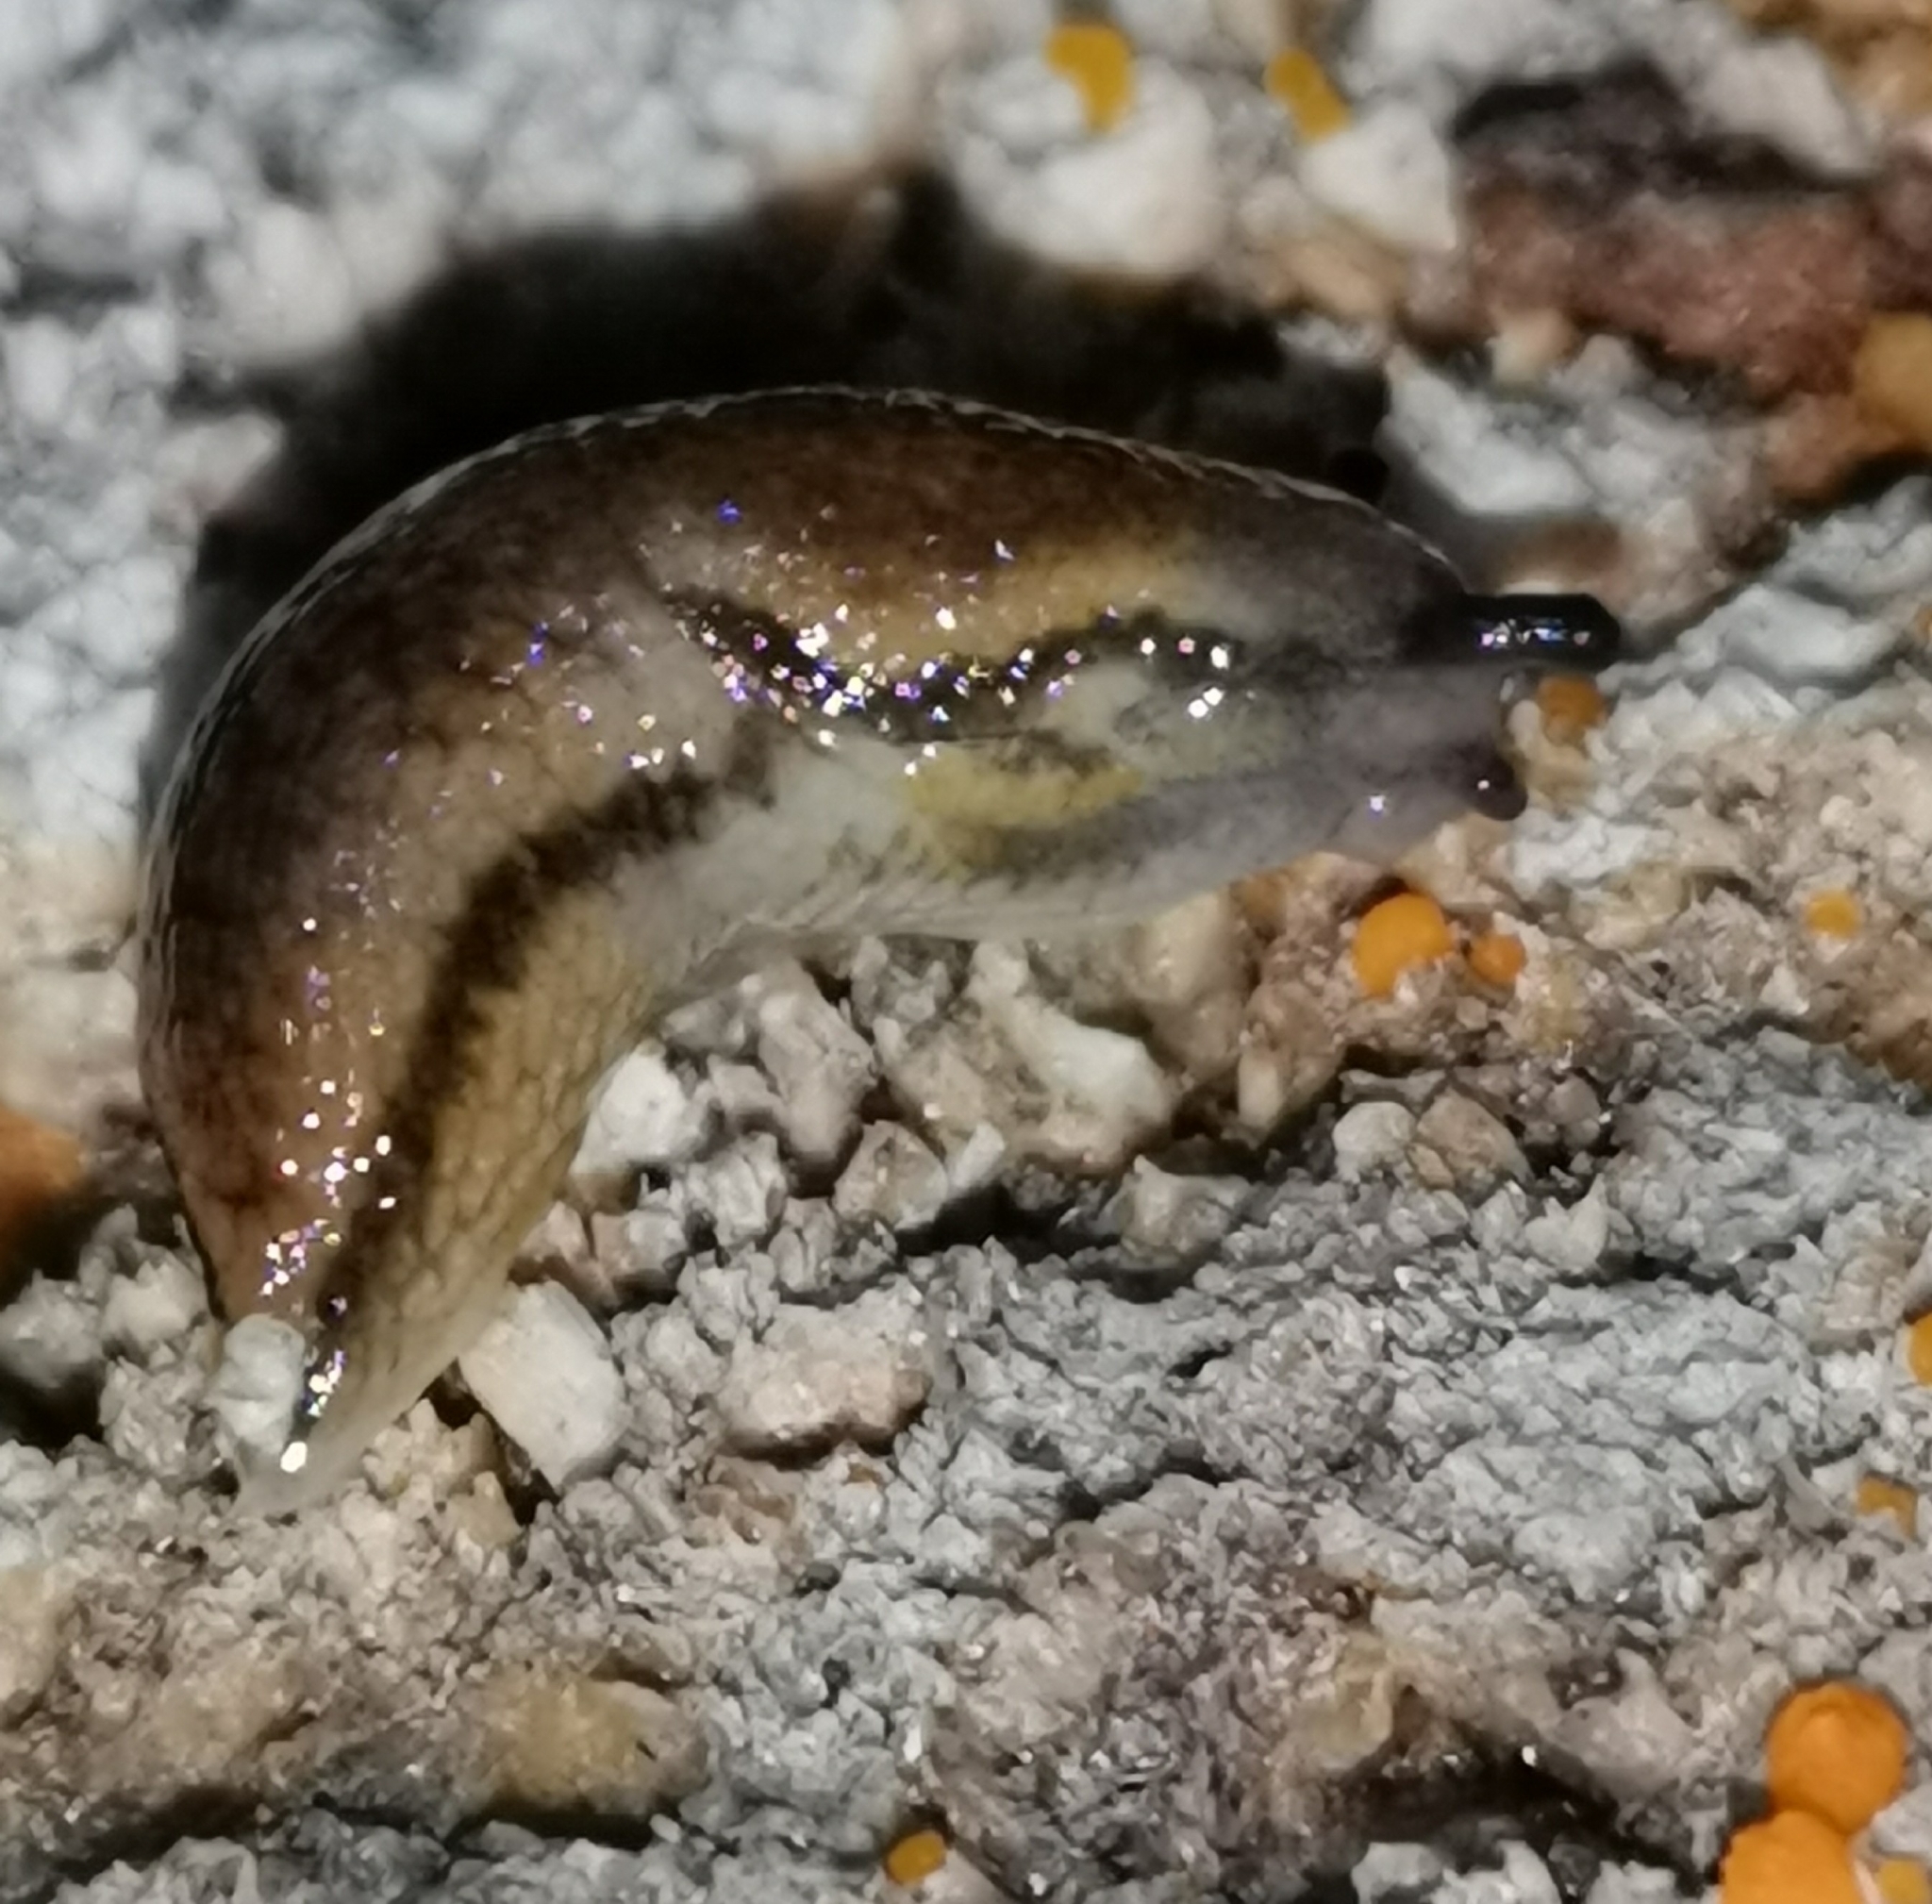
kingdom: Animalia
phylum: Mollusca
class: Gastropoda
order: Stylommatophora
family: Arionidae
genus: Arion
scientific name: Arion fuscus
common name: Northern dusky slug
